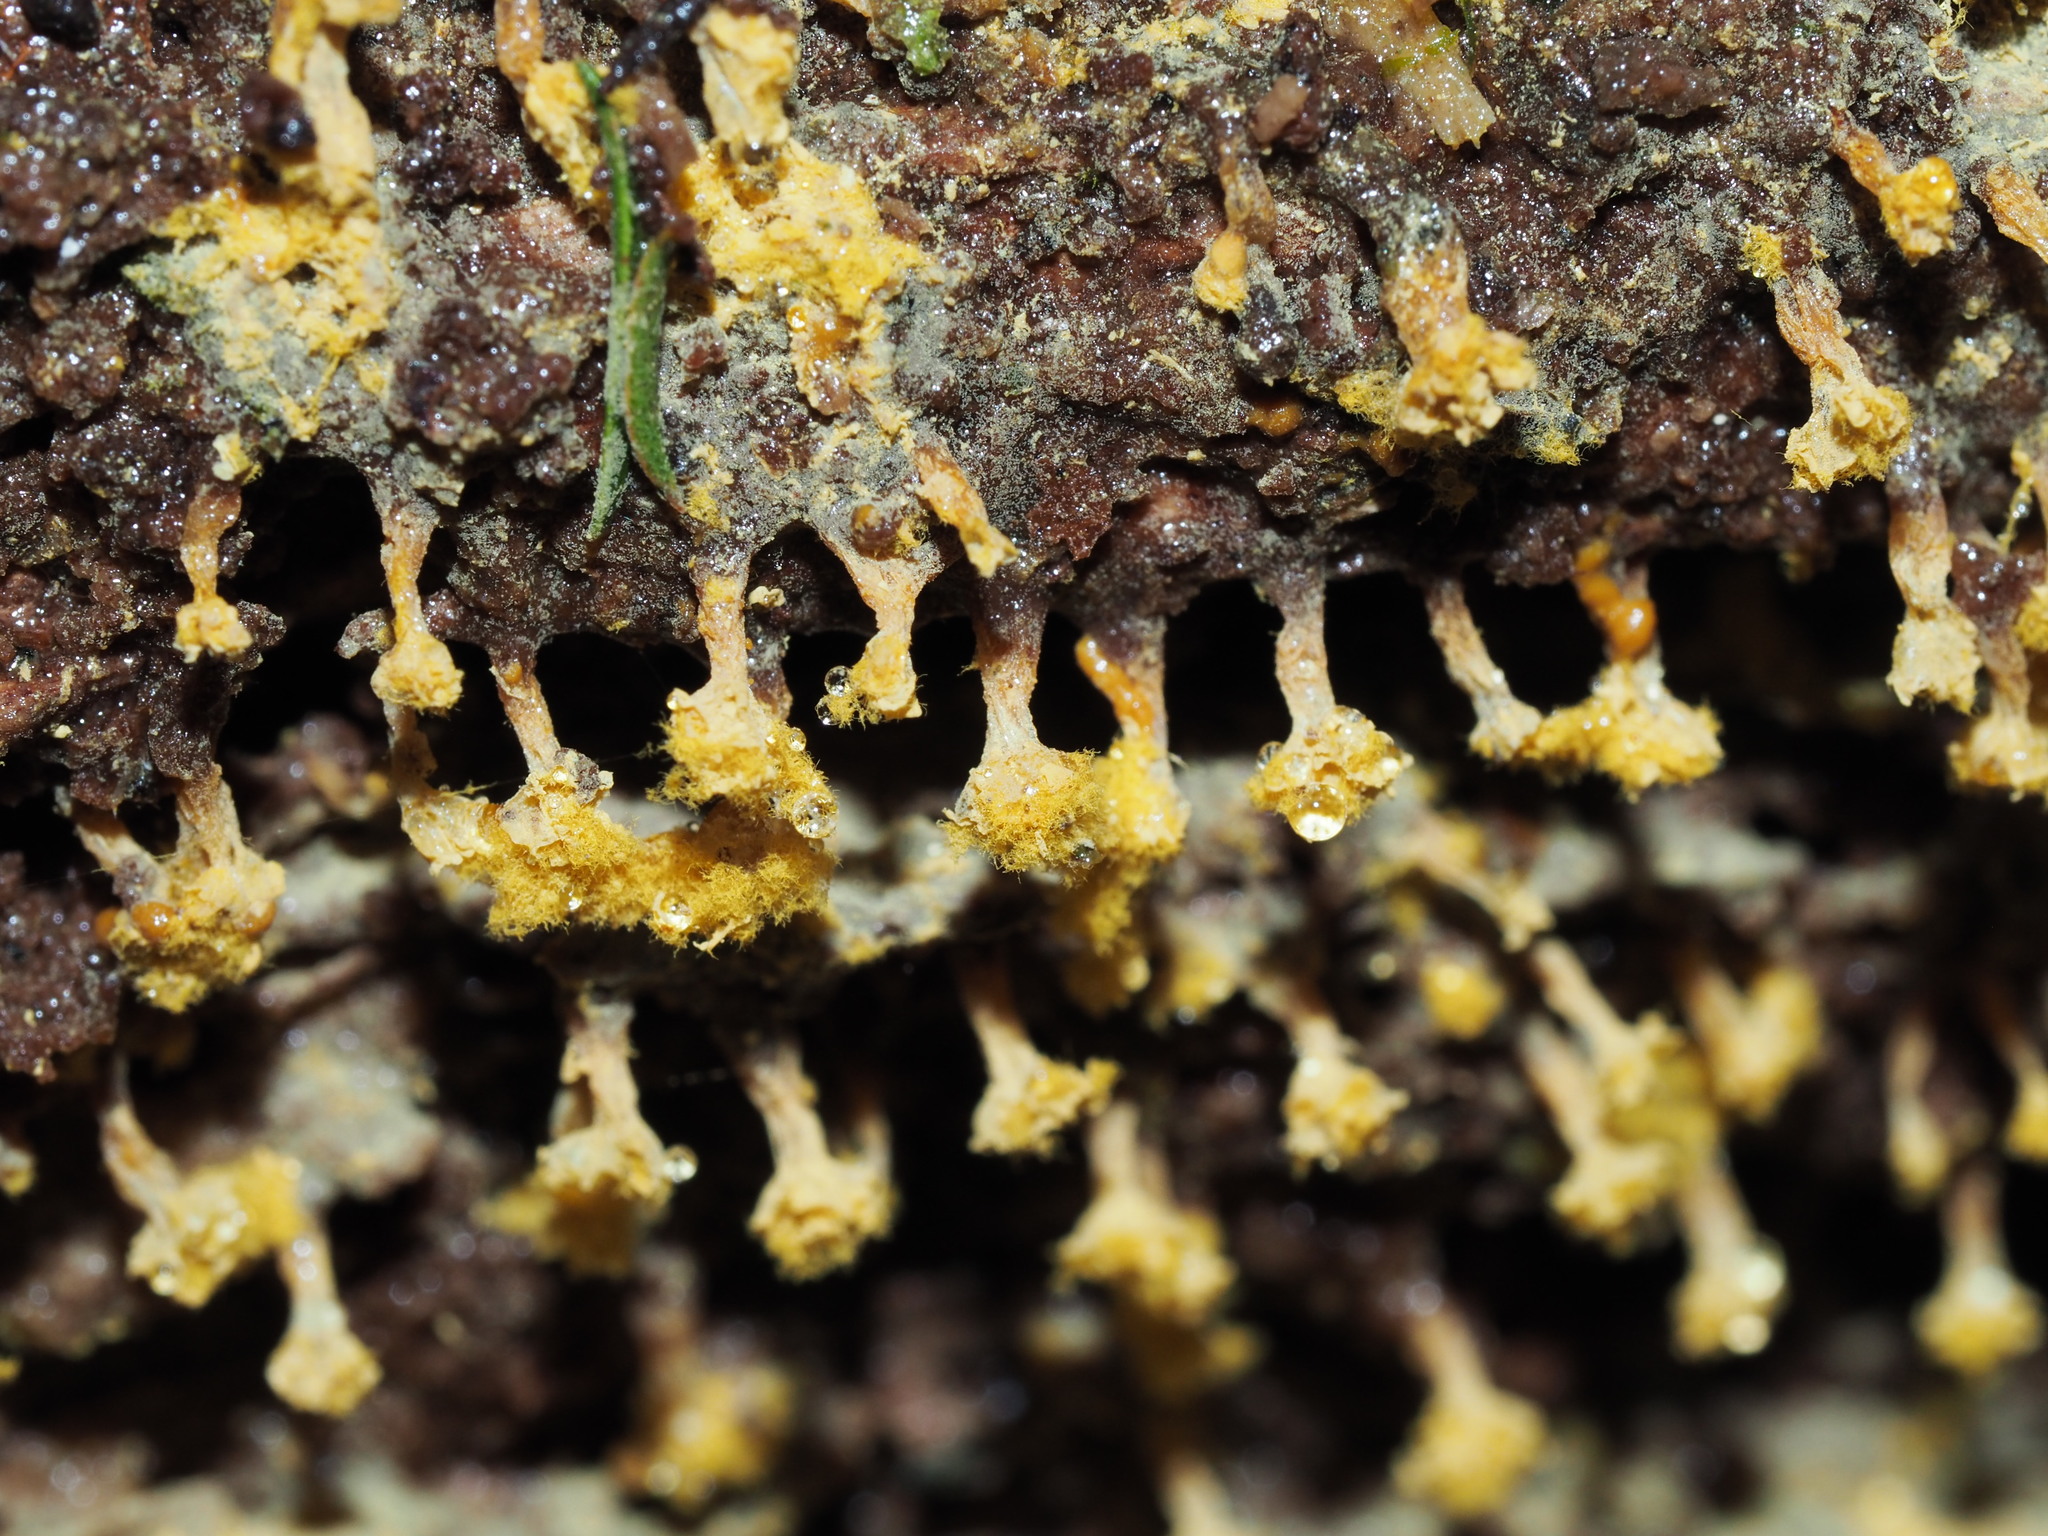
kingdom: Protozoa
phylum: Mycetozoa
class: Myxomycetes
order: Trichiales
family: Trichiaceae
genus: Oligonema
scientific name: Oligonema verrucosum
